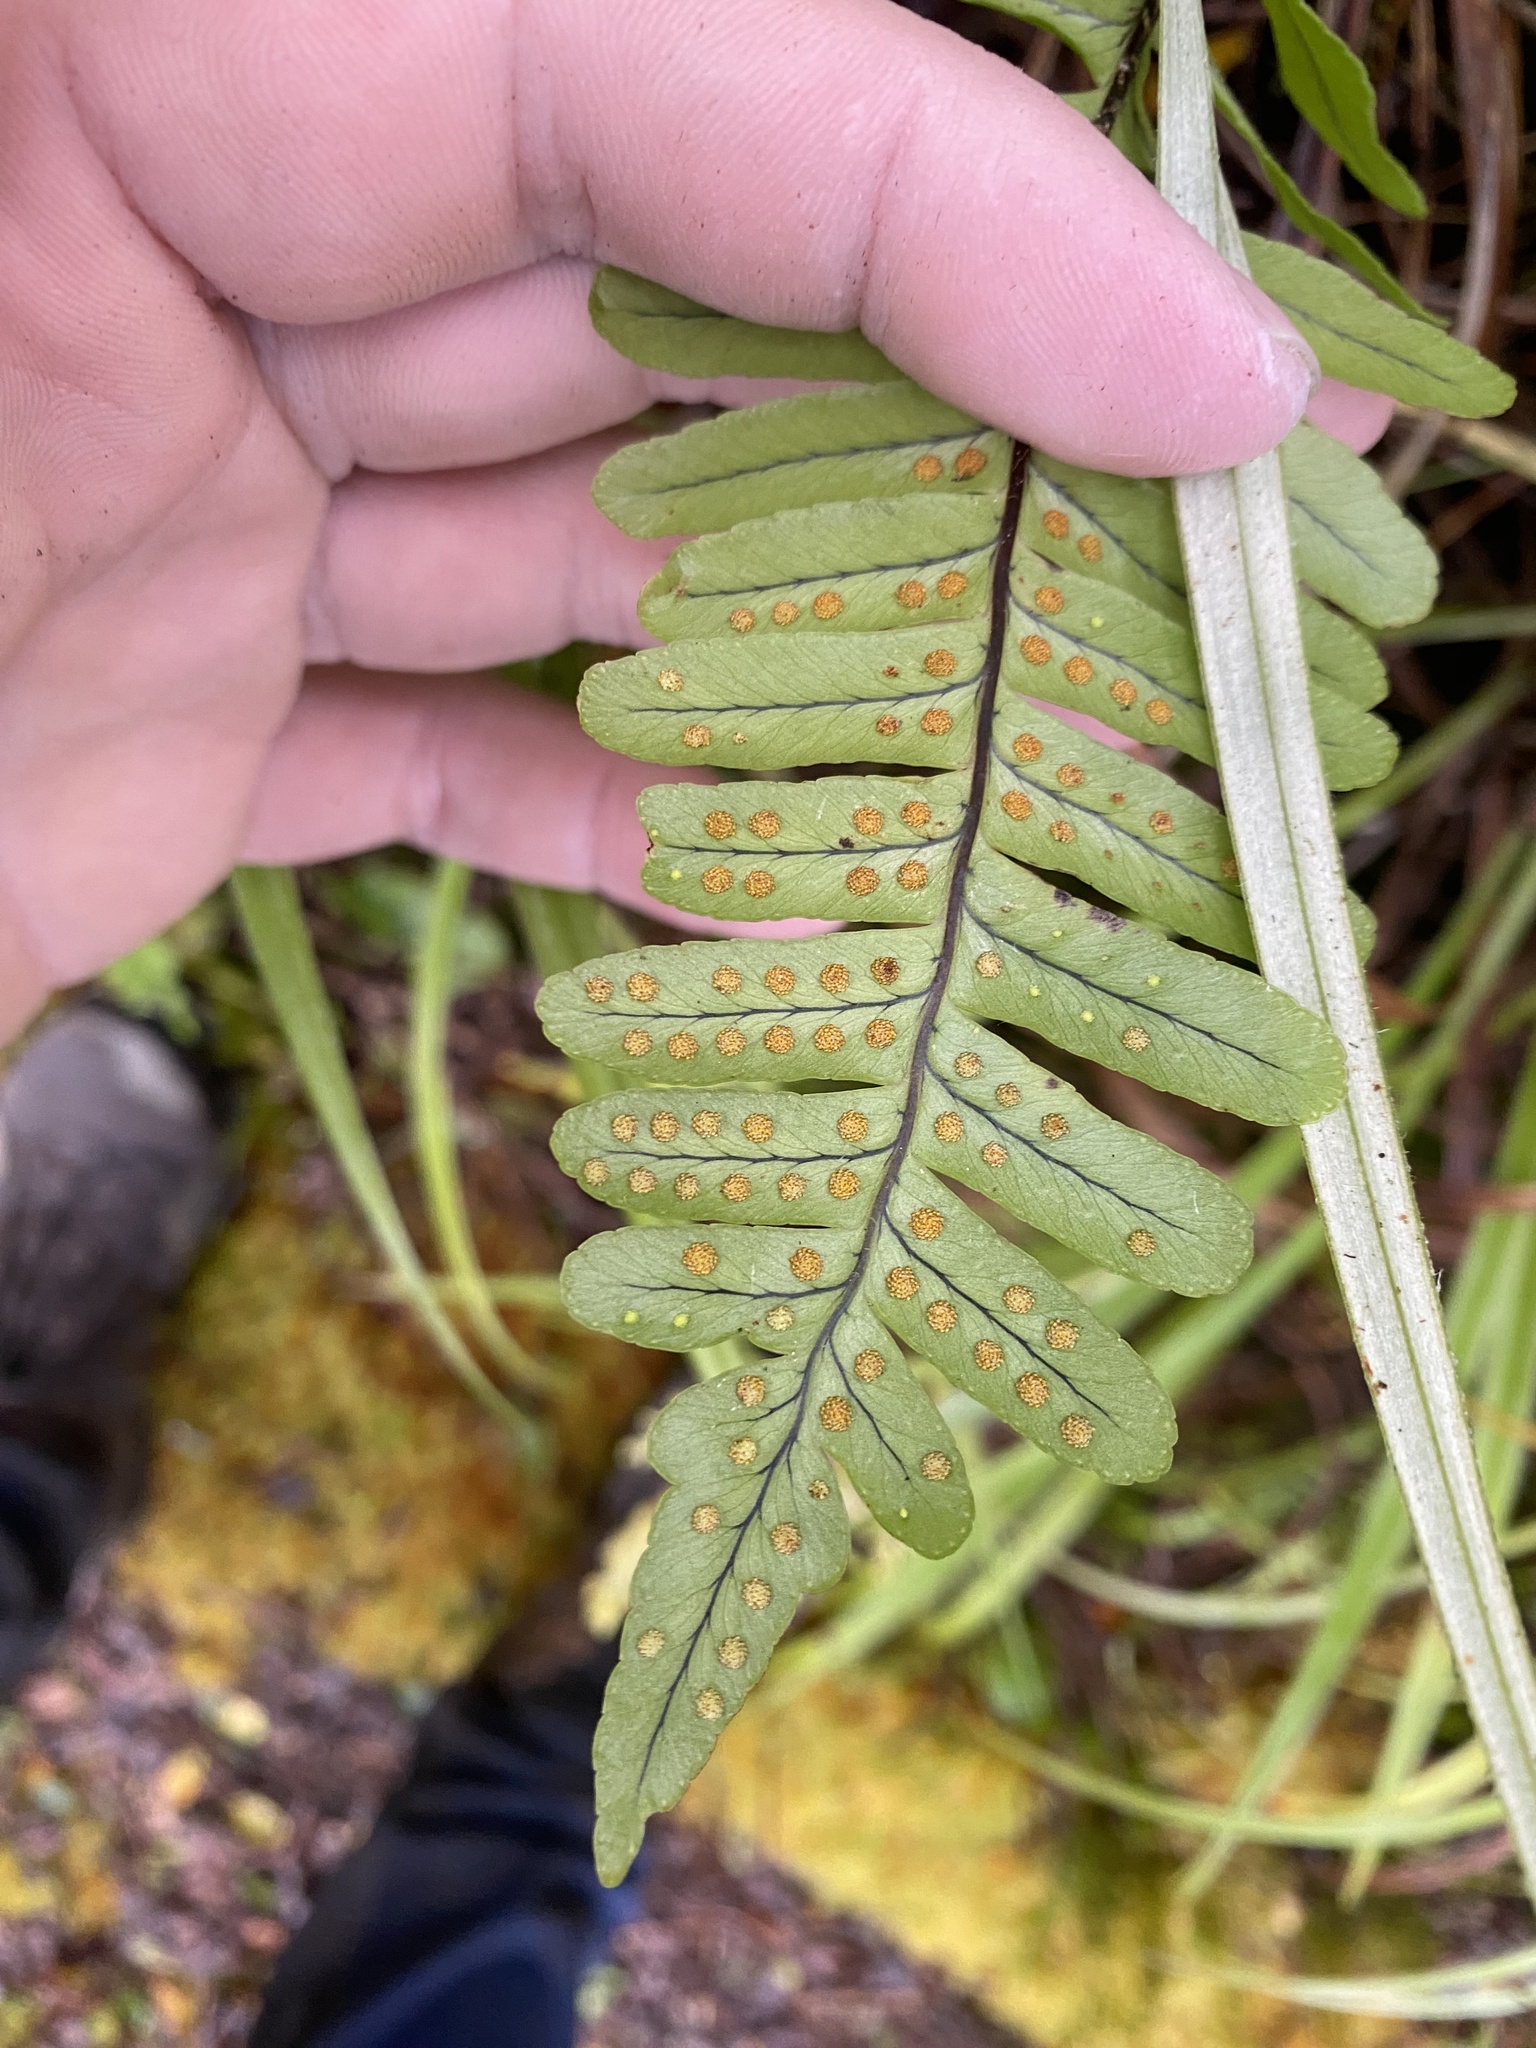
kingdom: Plantae
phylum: Tracheophyta
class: Polypodiopsida
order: Polypodiales
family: Polypodiaceae
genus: Polypodium
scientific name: Polypodium pellucidum
